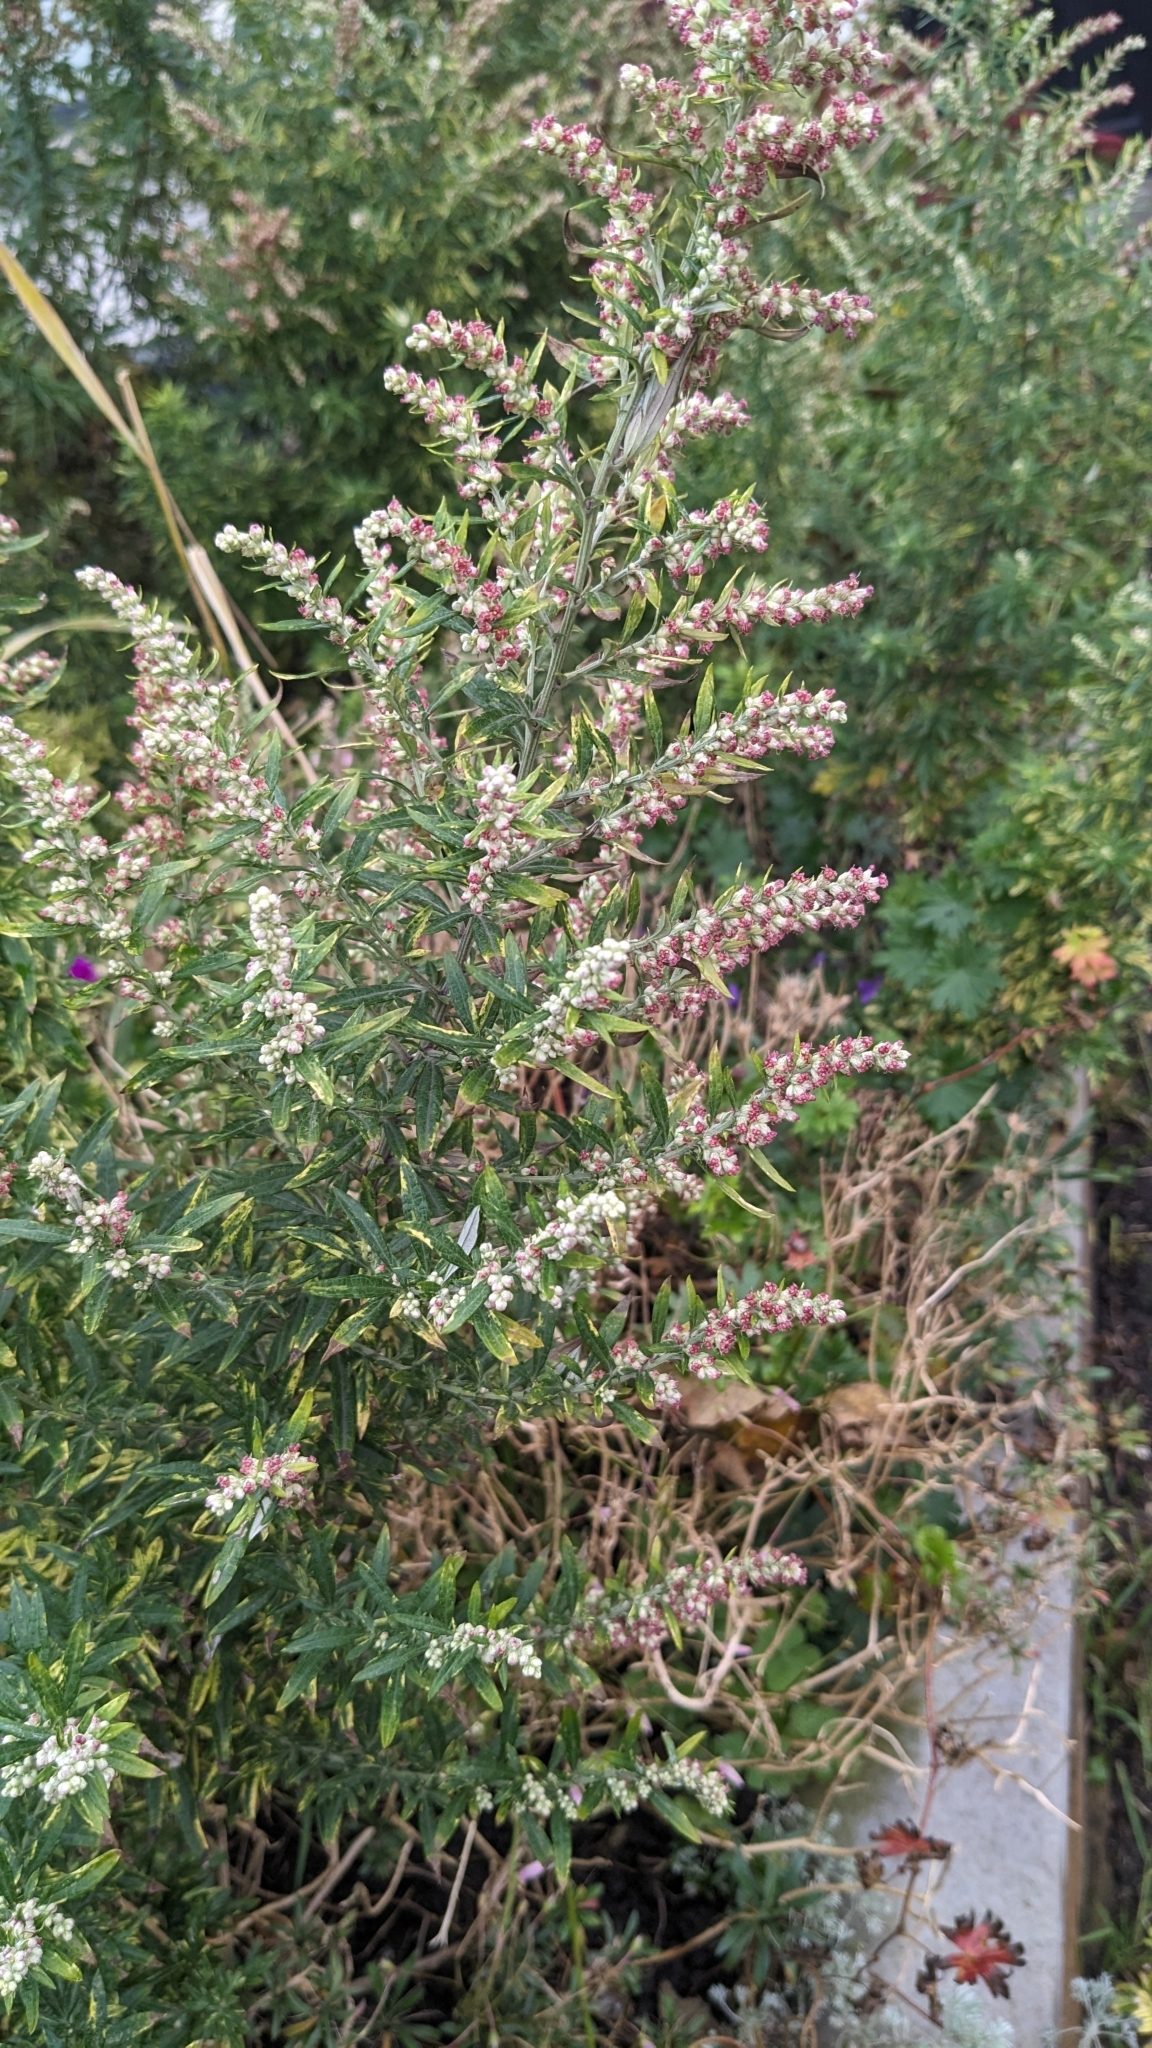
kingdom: Plantae
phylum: Tracheophyta
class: Magnoliopsida
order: Asterales
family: Asteraceae
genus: Artemisia
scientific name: Artemisia vulgaris
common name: Mugwort
